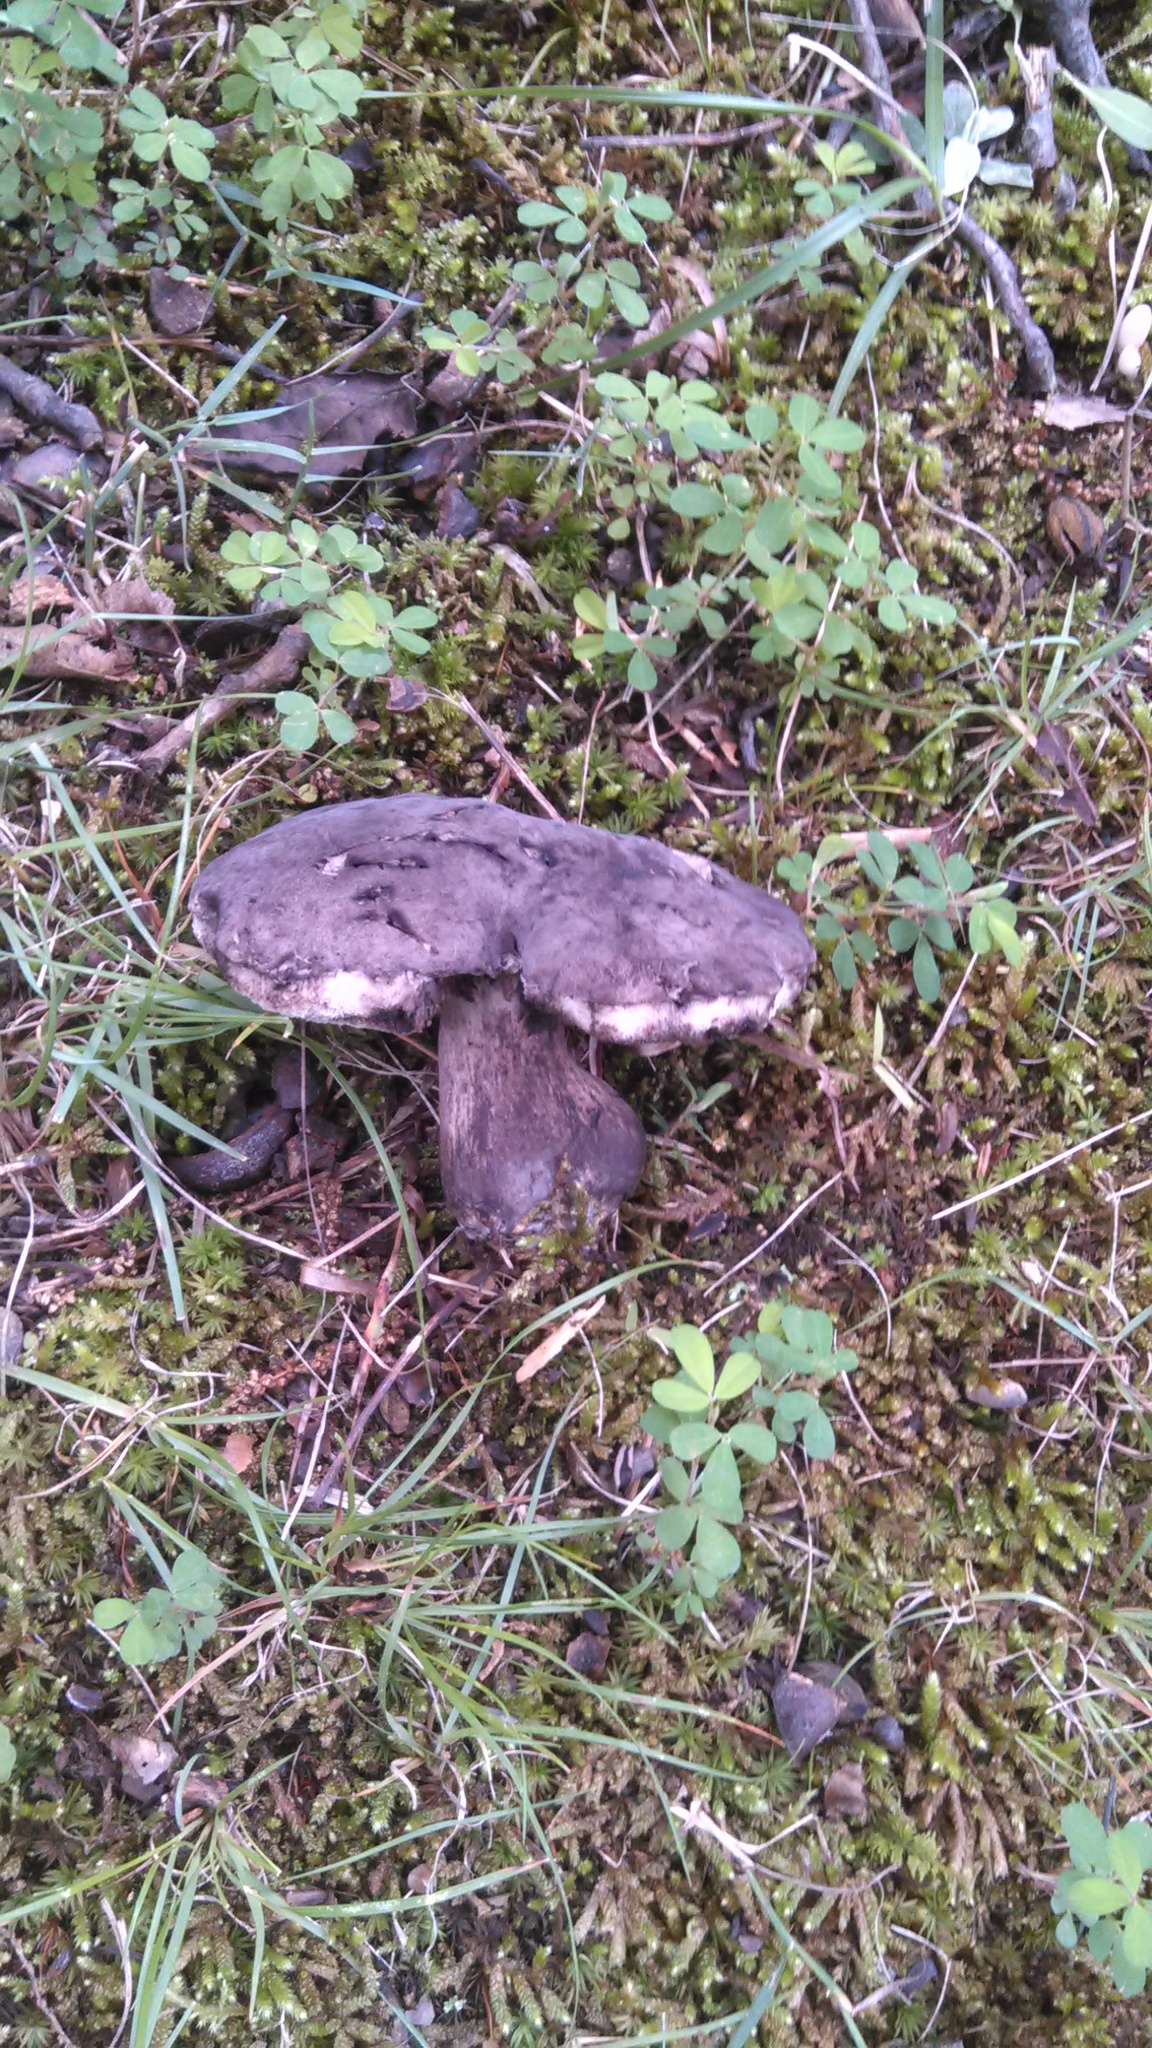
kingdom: Fungi
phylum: Basidiomycota
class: Agaricomycetes
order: Boletales
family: Boletaceae
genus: Tylopilus
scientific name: Tylopilus alboater
